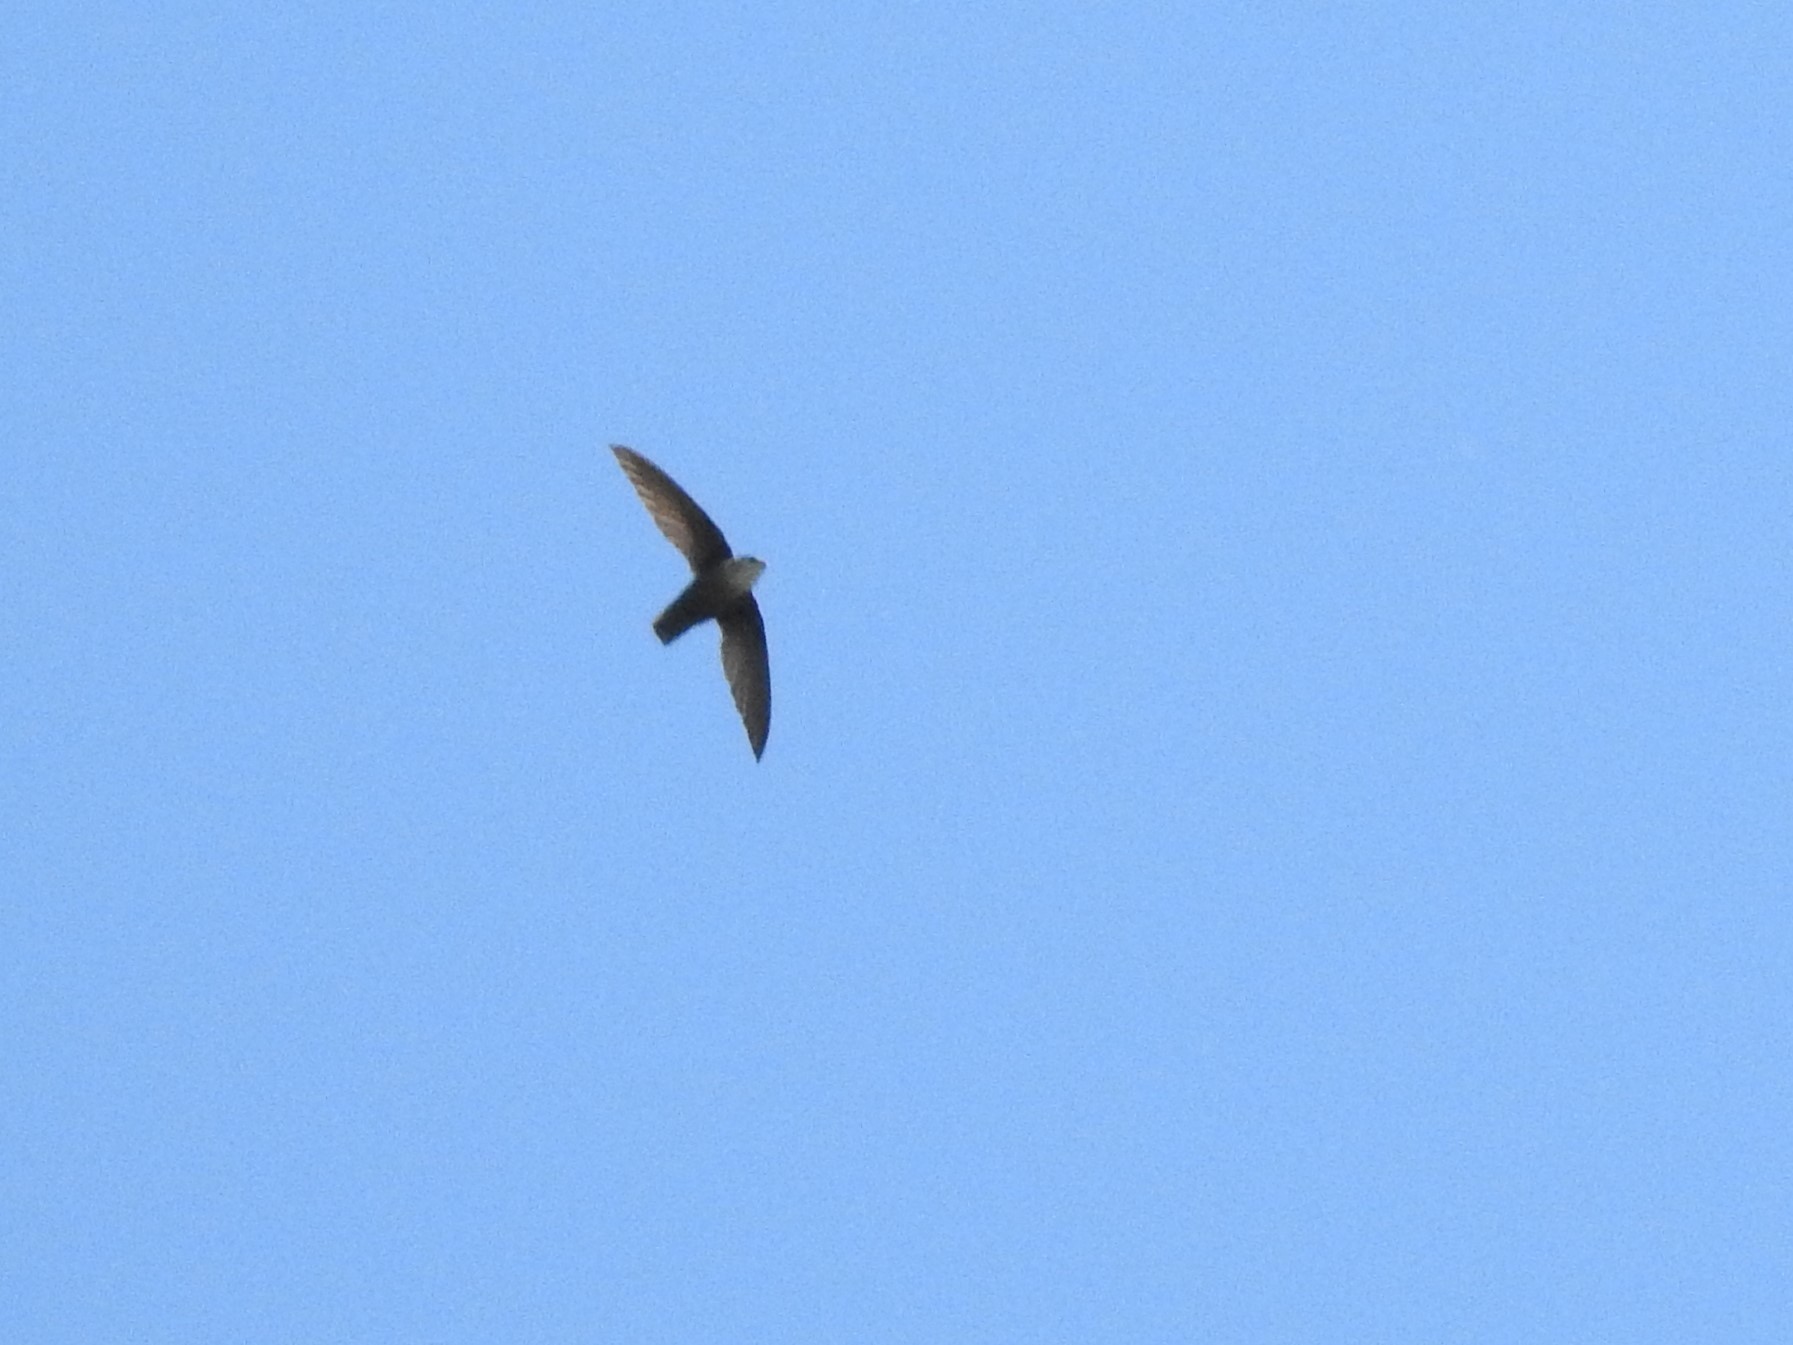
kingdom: Animalia
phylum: Chordata
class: Aves
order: Apodiformes
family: Apodidae
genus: Chaetura
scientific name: Chaetura pelagica
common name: Chimney swift
